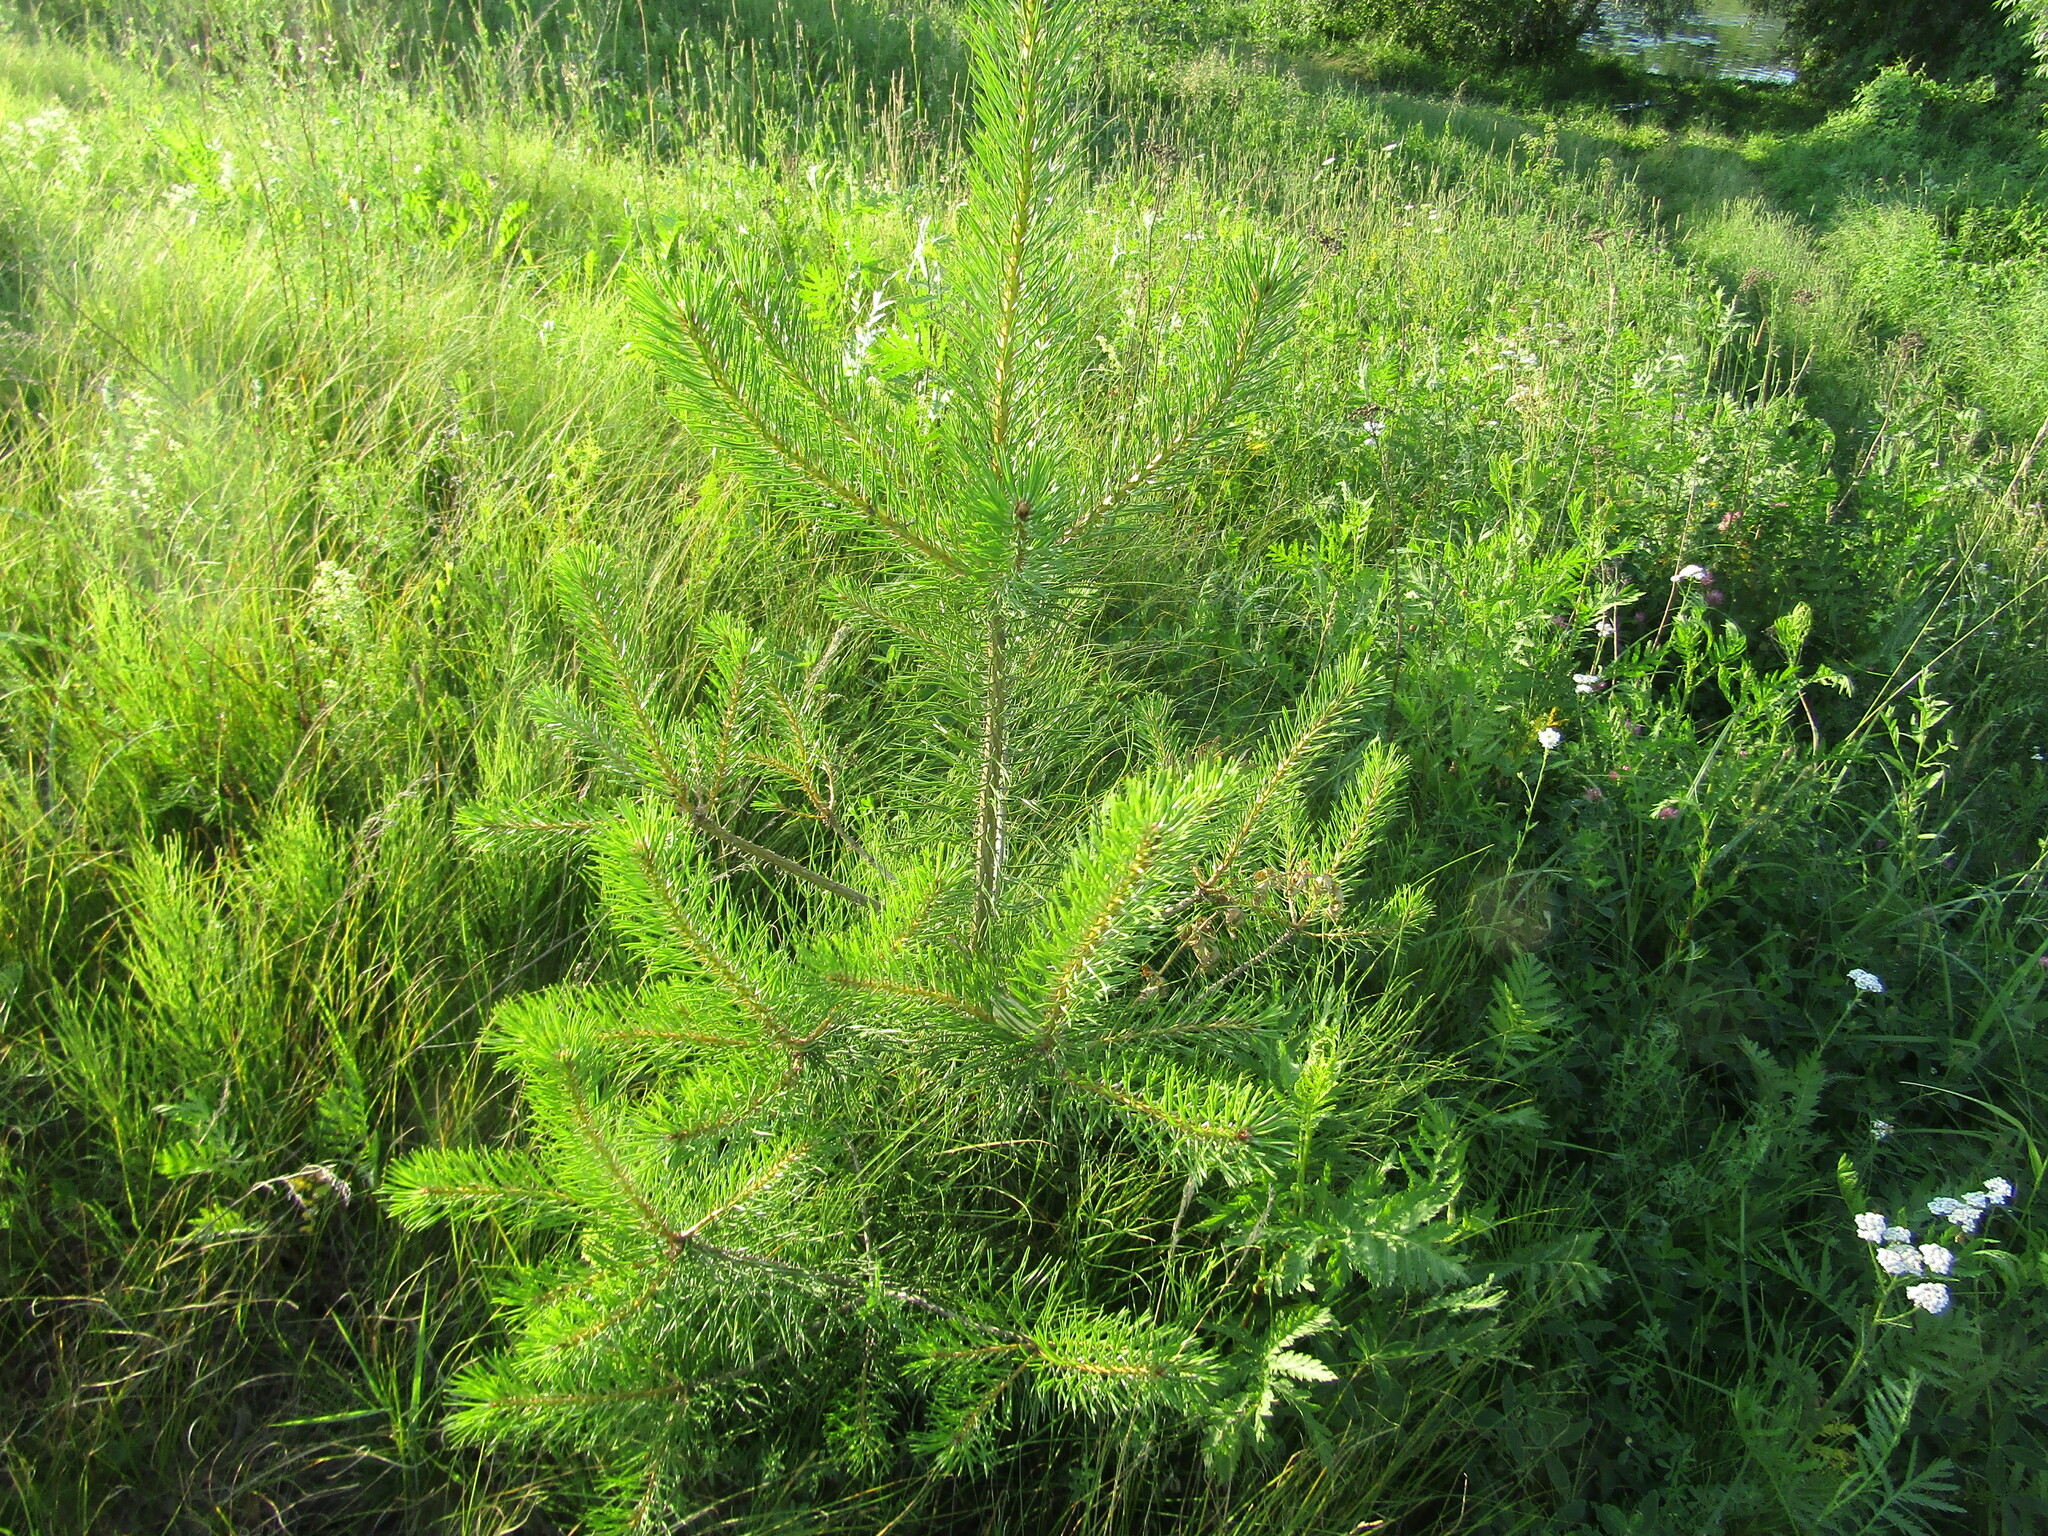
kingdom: Plantae
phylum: Tracheophyta
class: Pinopsida
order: Pinales
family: Pinaceae
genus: Pinus
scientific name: Pinus sylvestris
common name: Scots pine
